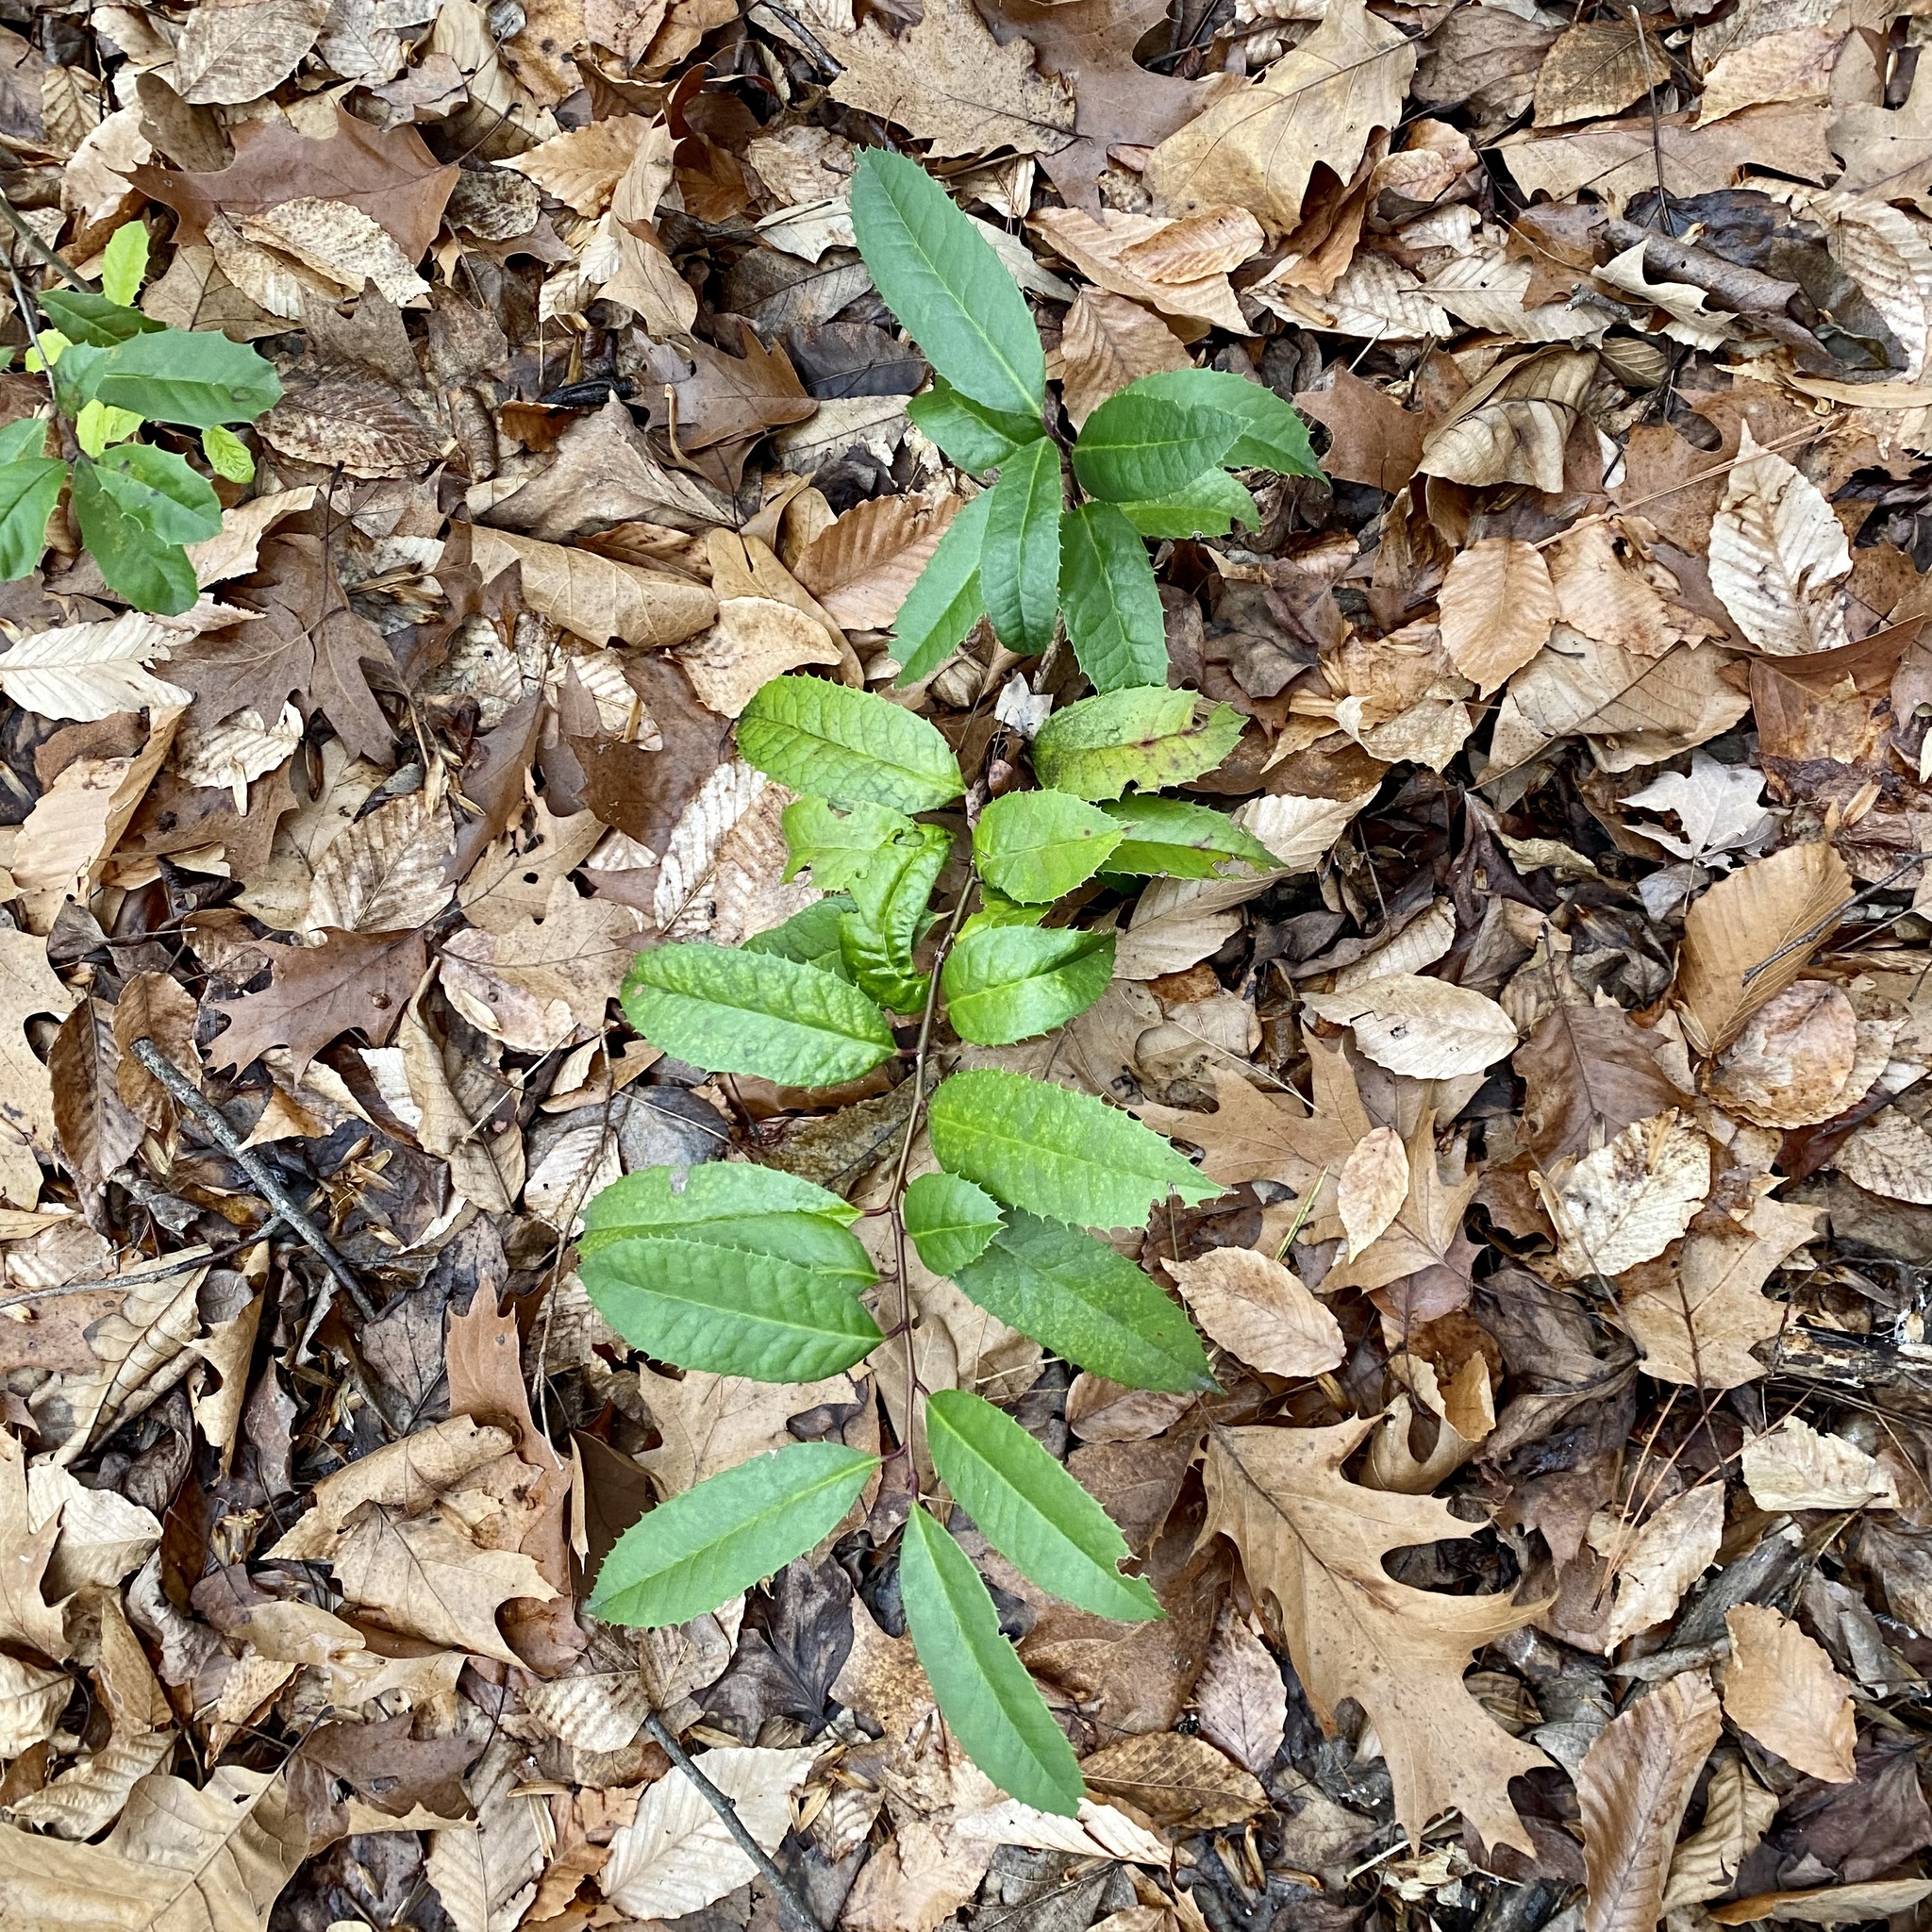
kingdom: Plantae
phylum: Tracheophyta
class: Magnoliopsida
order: Rosales
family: Rosaceae
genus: Photinia
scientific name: Photinia serratifolia
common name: Taiwanese photinia
